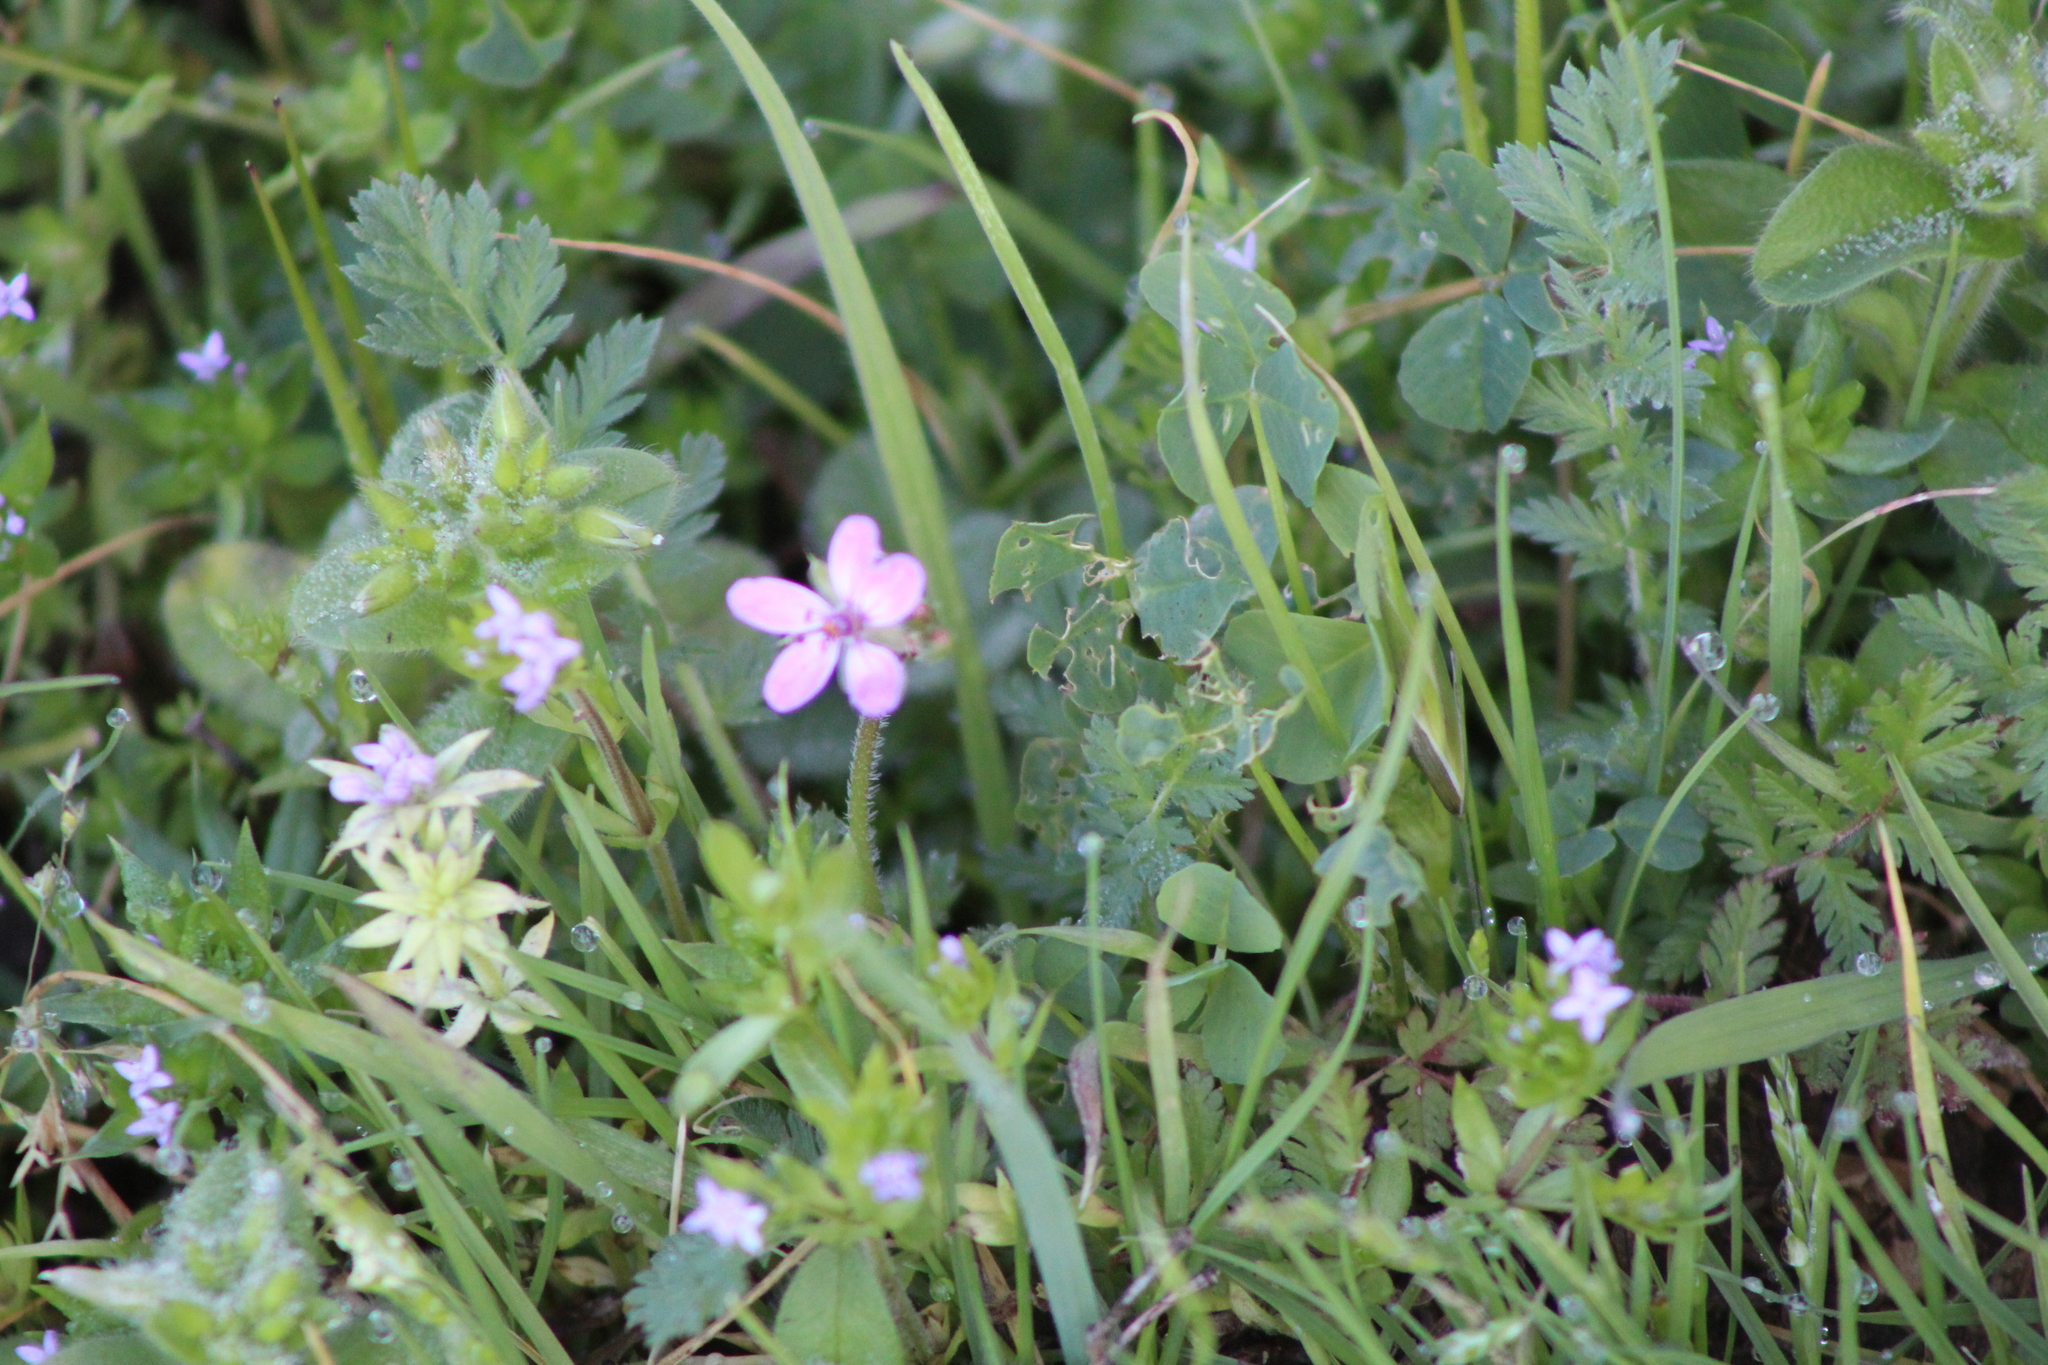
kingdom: Plantae
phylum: Tracheophyta
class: Magnoliopsida
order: Geraniales
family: Geraniaceae
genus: Erodium
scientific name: Erodium cicutarium
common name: Common stork's-bill
